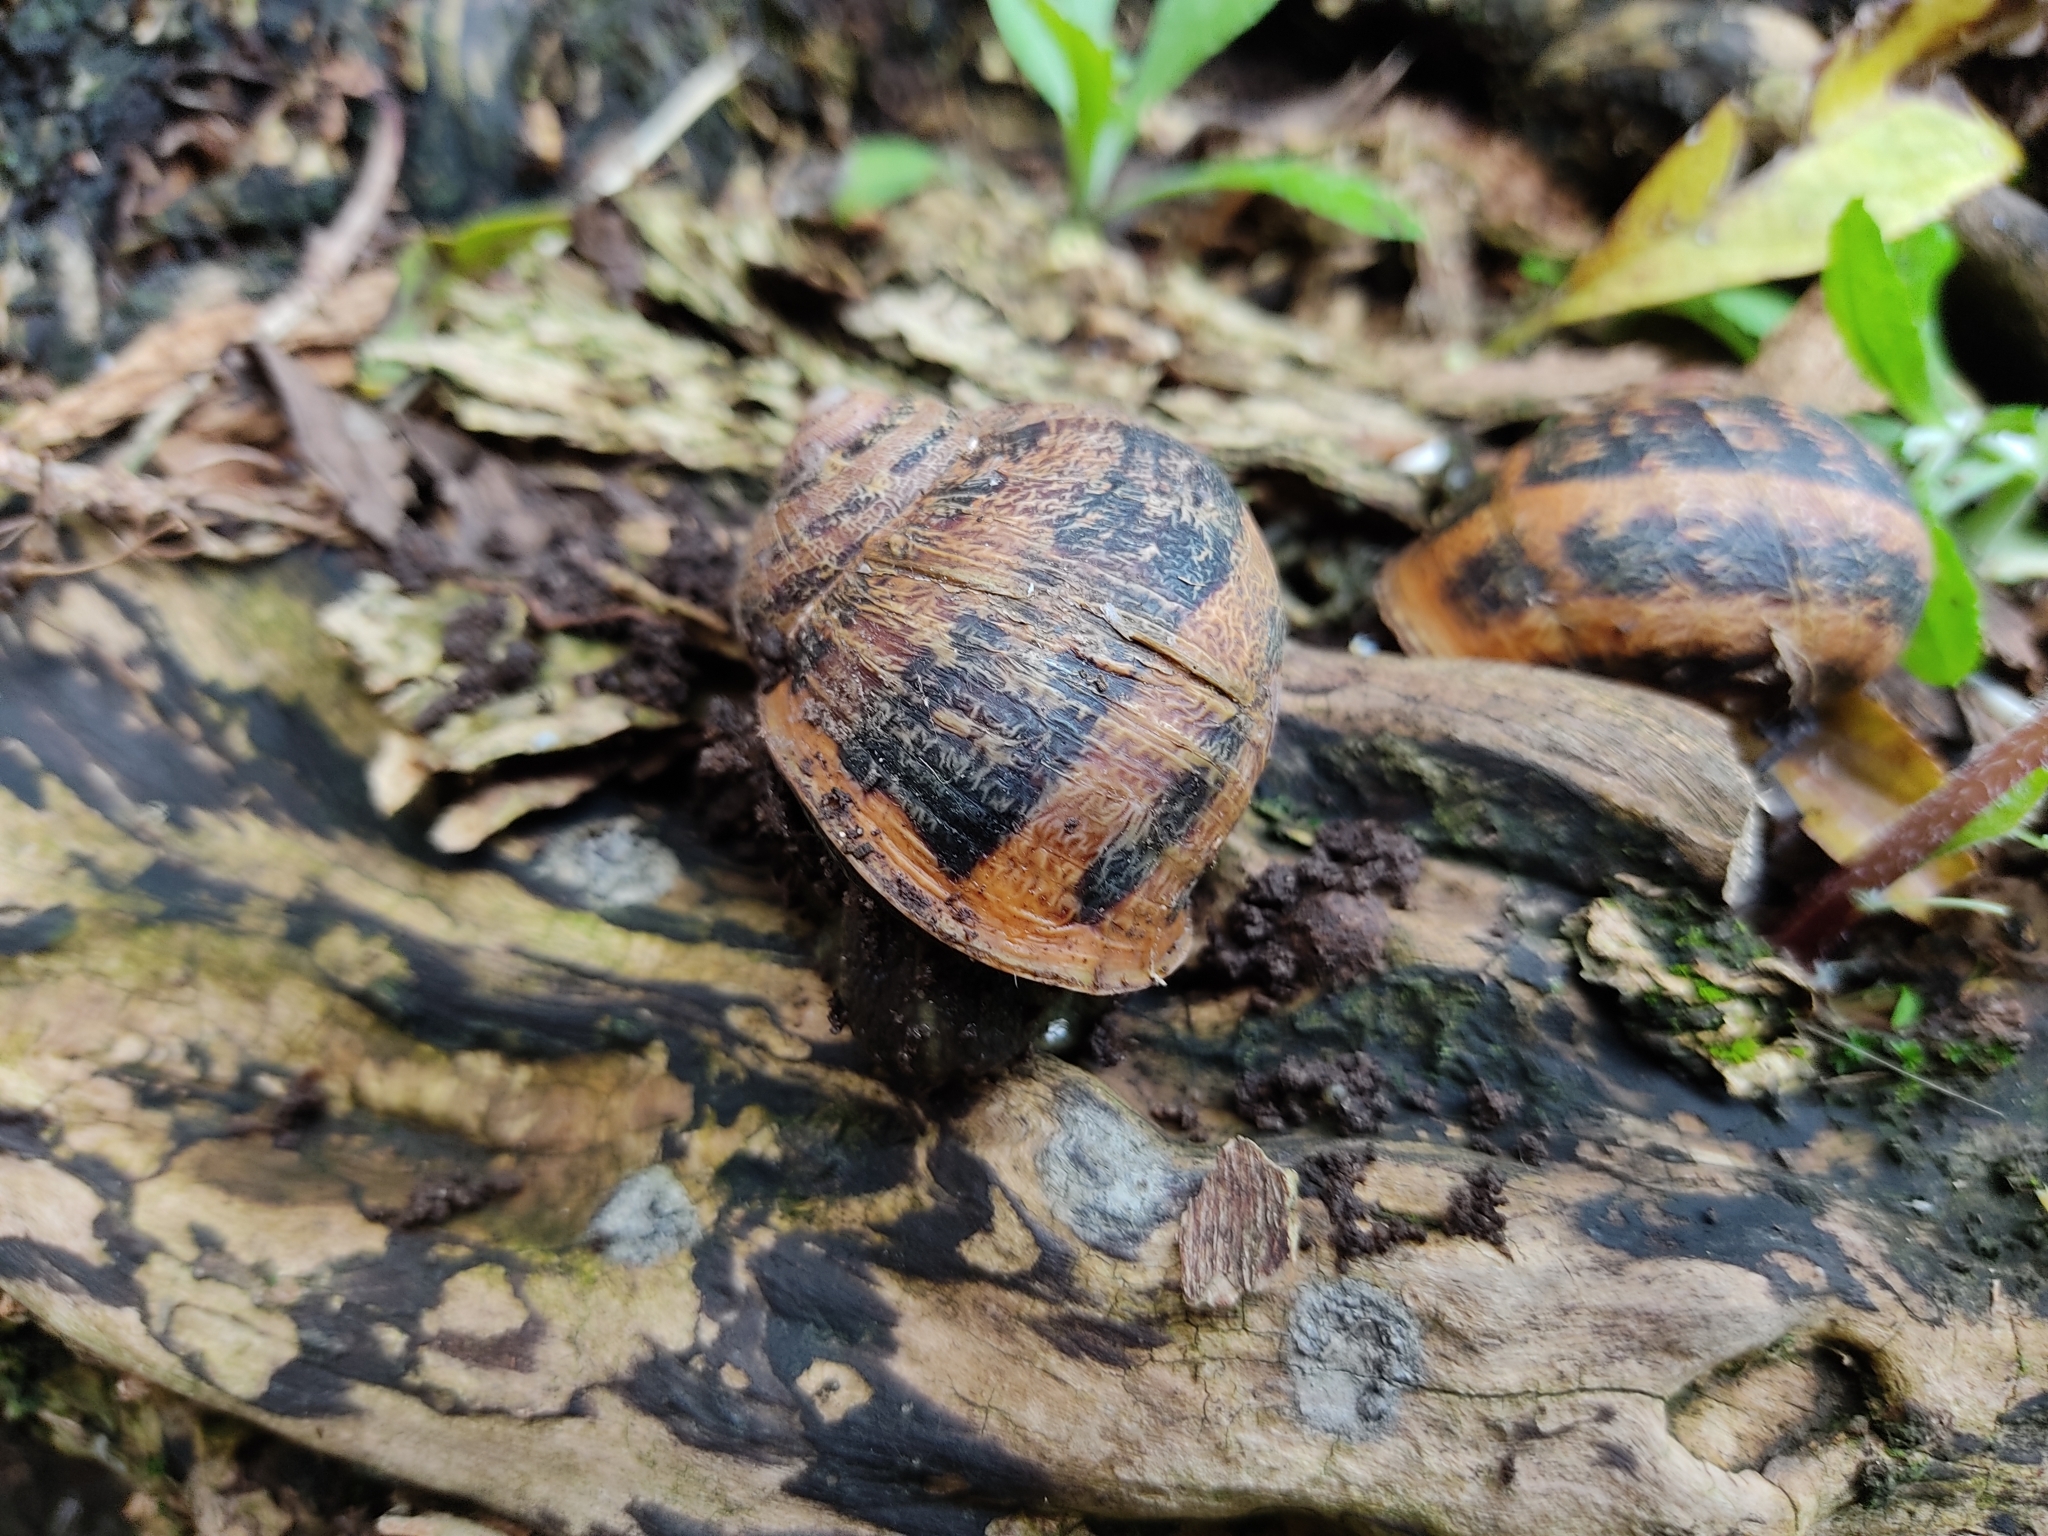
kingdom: Animalia
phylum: Mollusca
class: Gastropoda
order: Stylommatophora
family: Helicidae
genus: Cornu
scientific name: Cornu aspersum
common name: Brown garden snail
